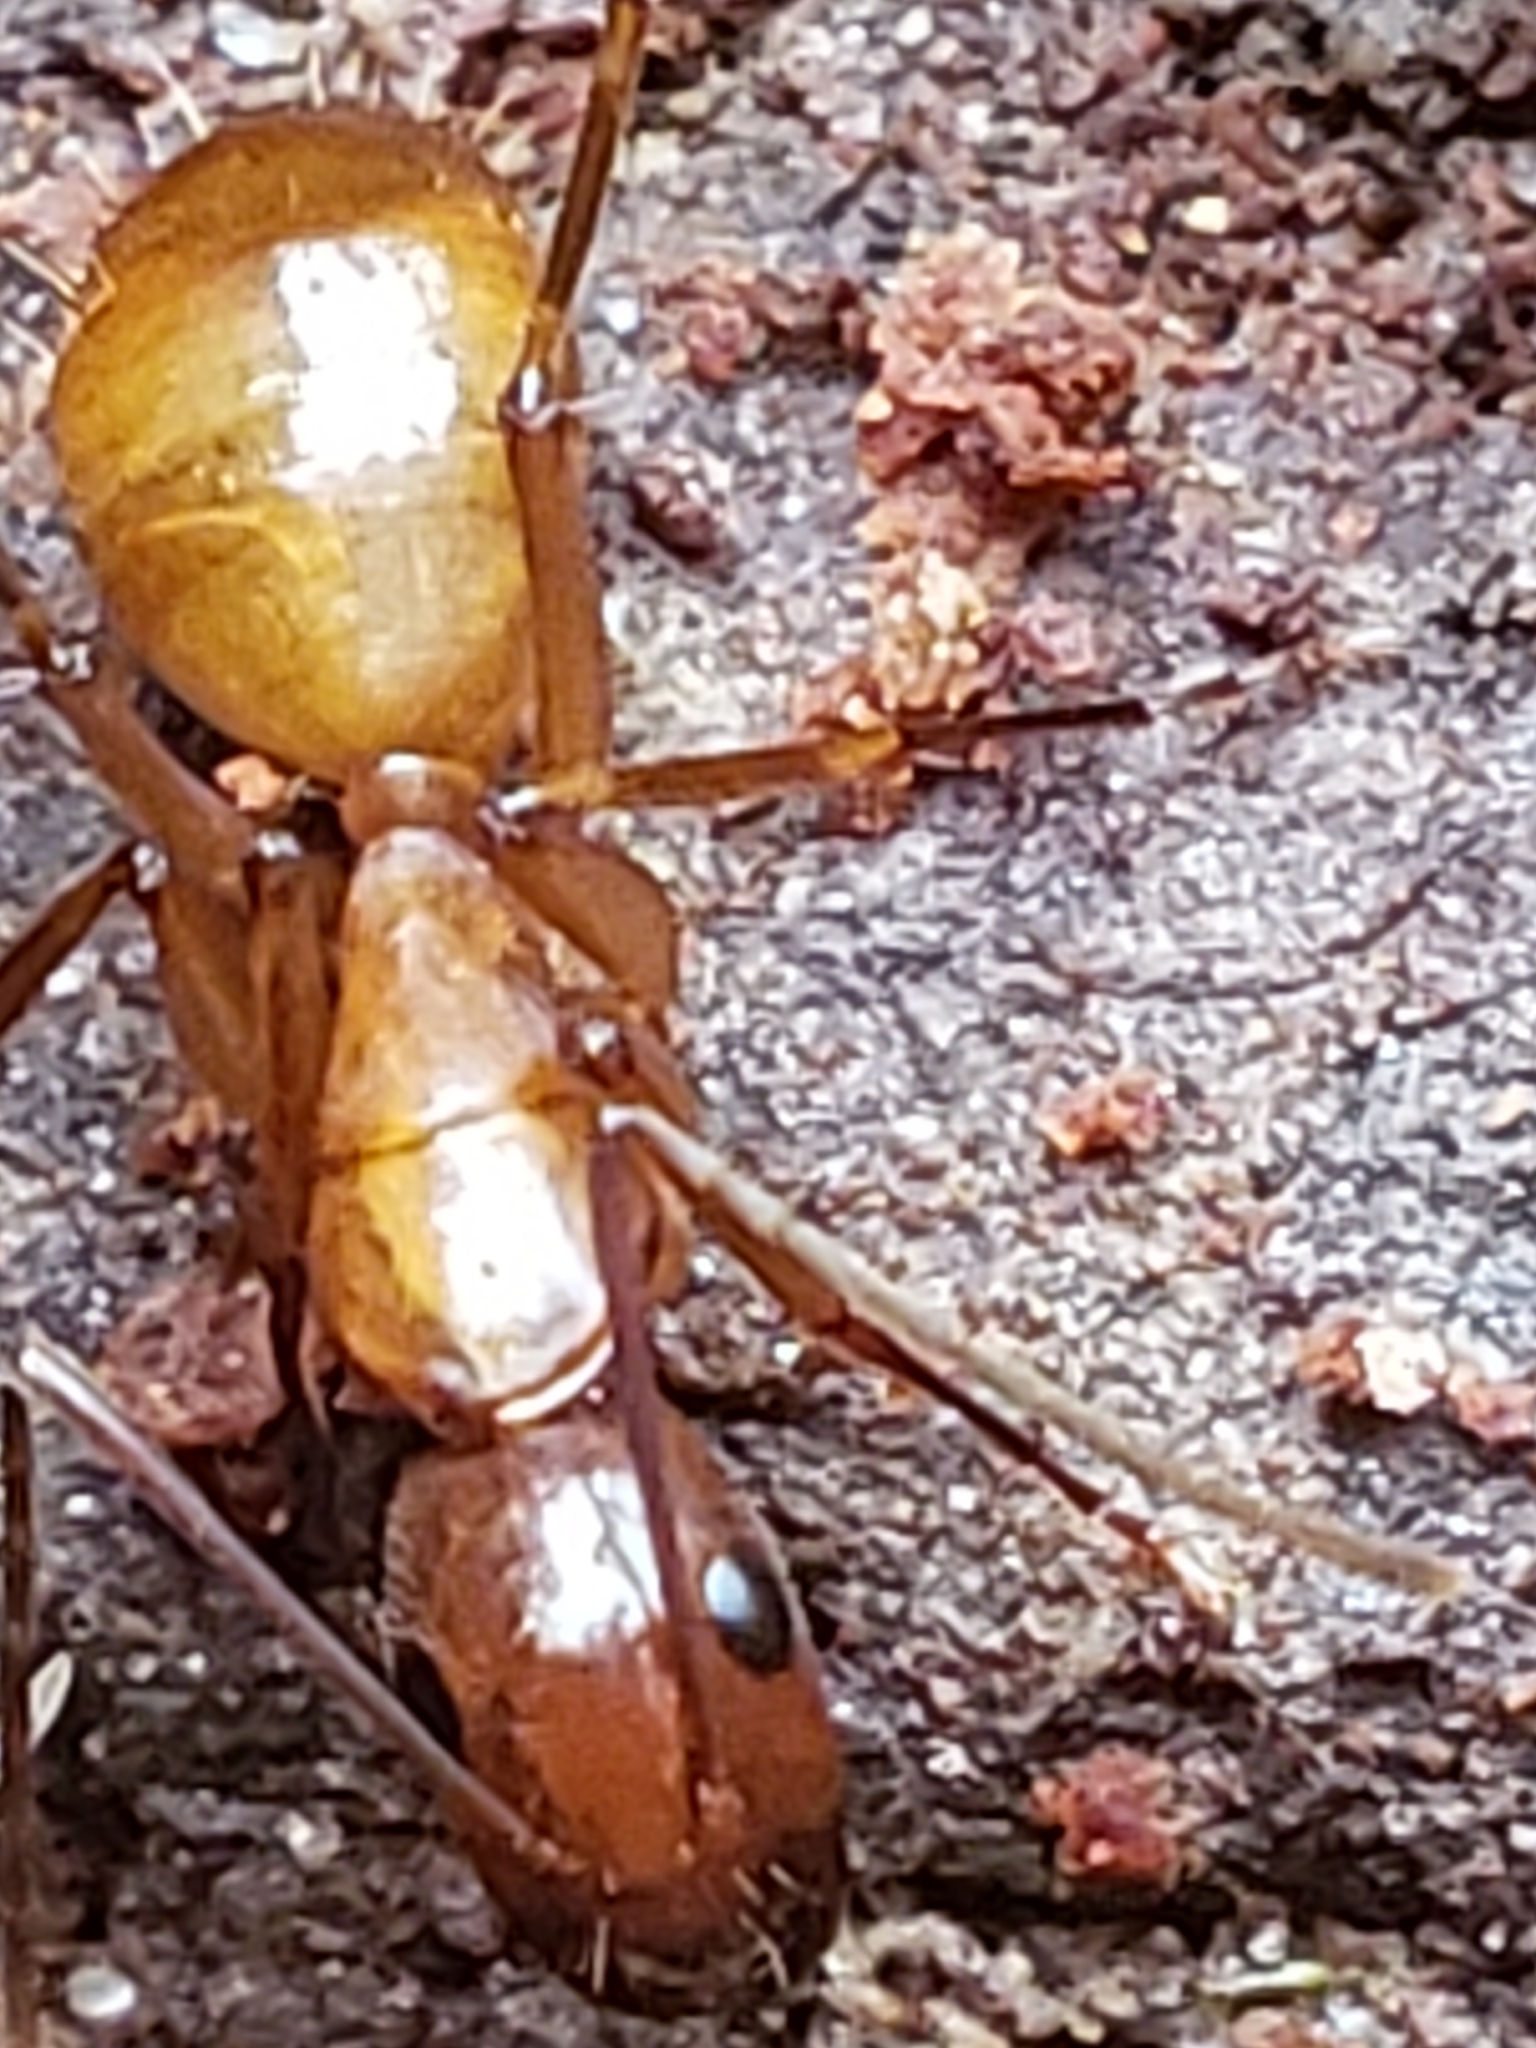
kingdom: Animalia
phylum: Arthropoda
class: Insecta
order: Hymenoptera
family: Formicidae
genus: Camponotus
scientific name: Camponotus castaneus
